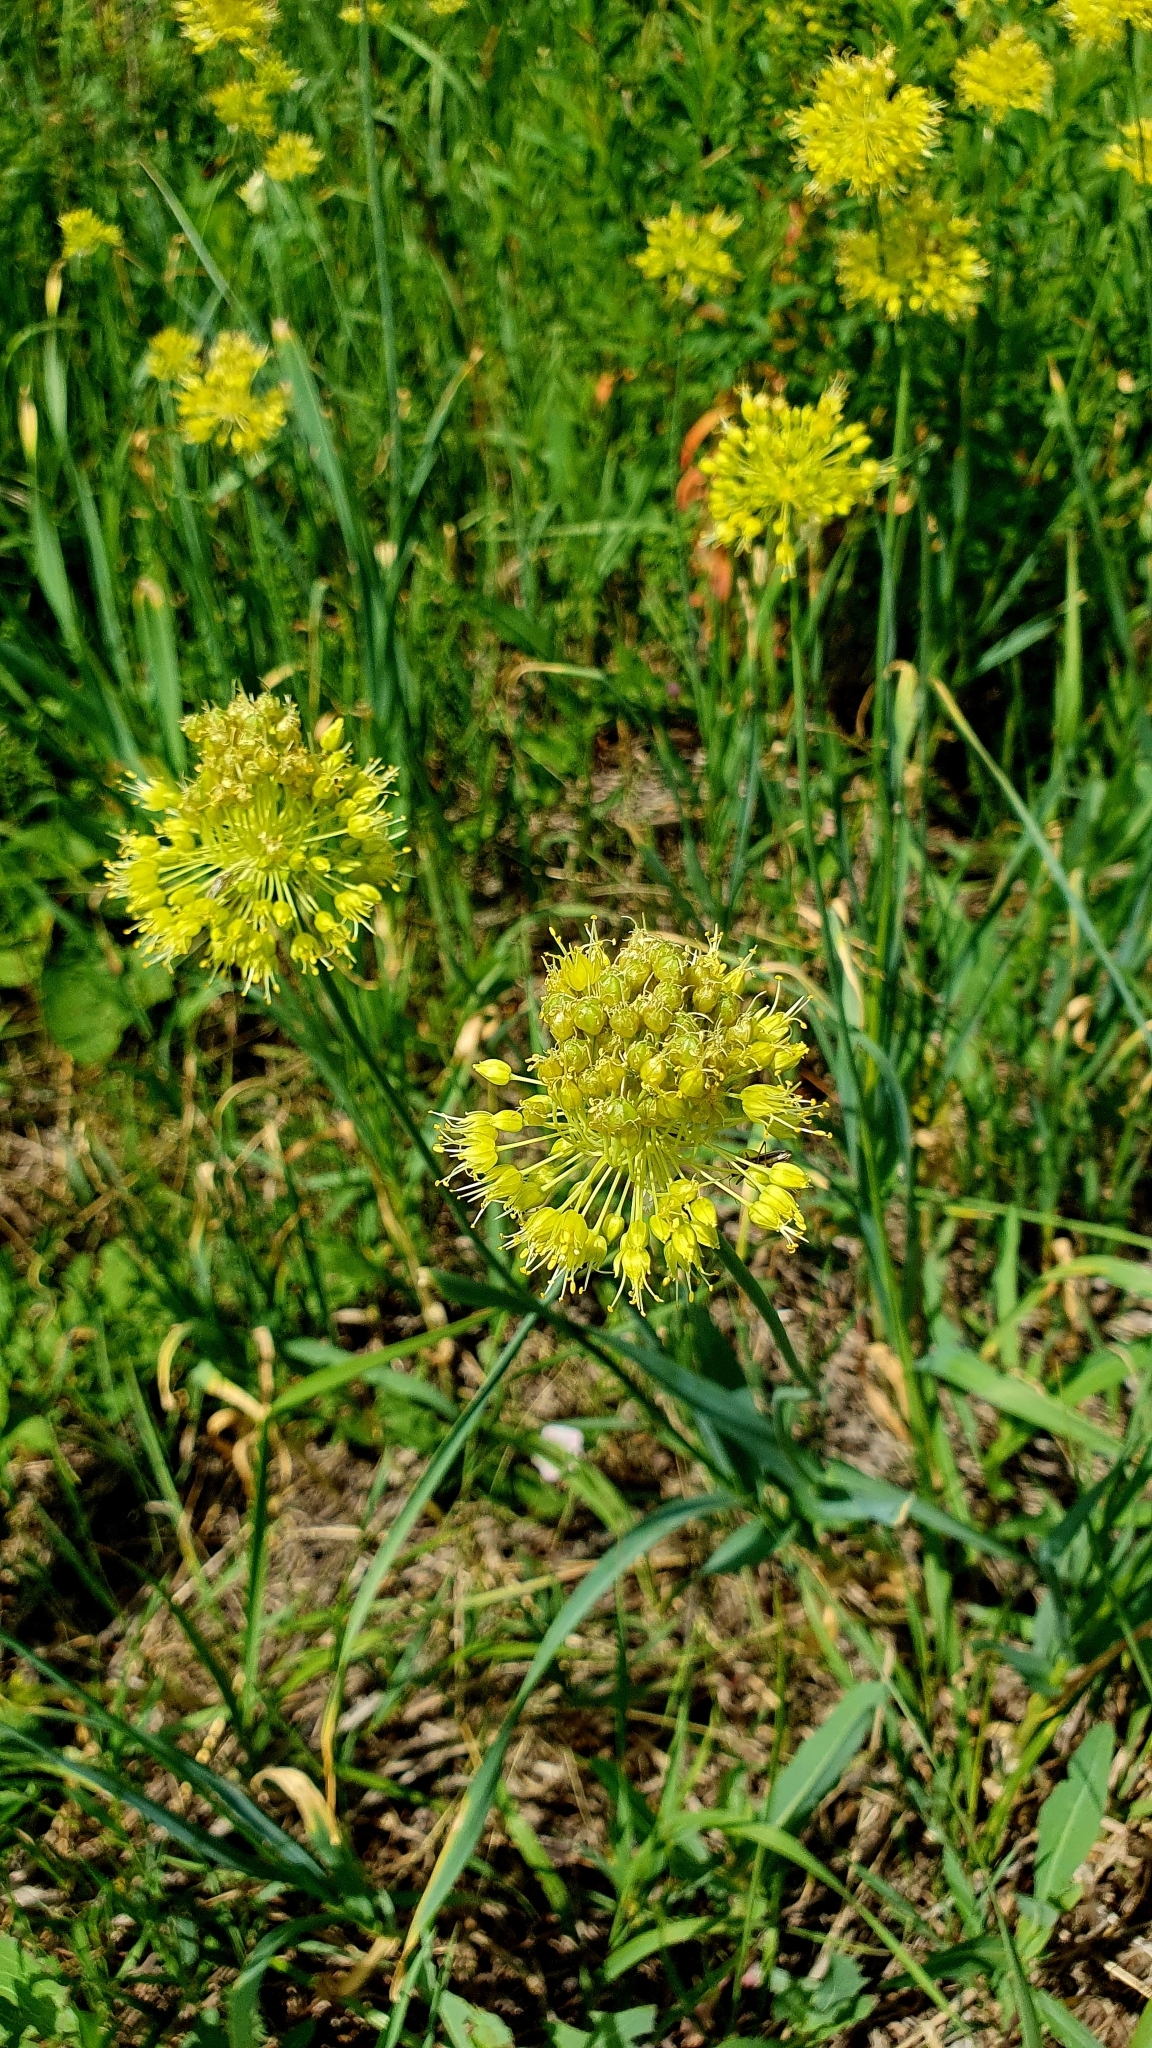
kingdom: Plantae
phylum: Tracheophyta
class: Liliopsida
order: Asparagales
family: Amaryllidaceae
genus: Allium
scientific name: Allium obliquum
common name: Oblique onion
